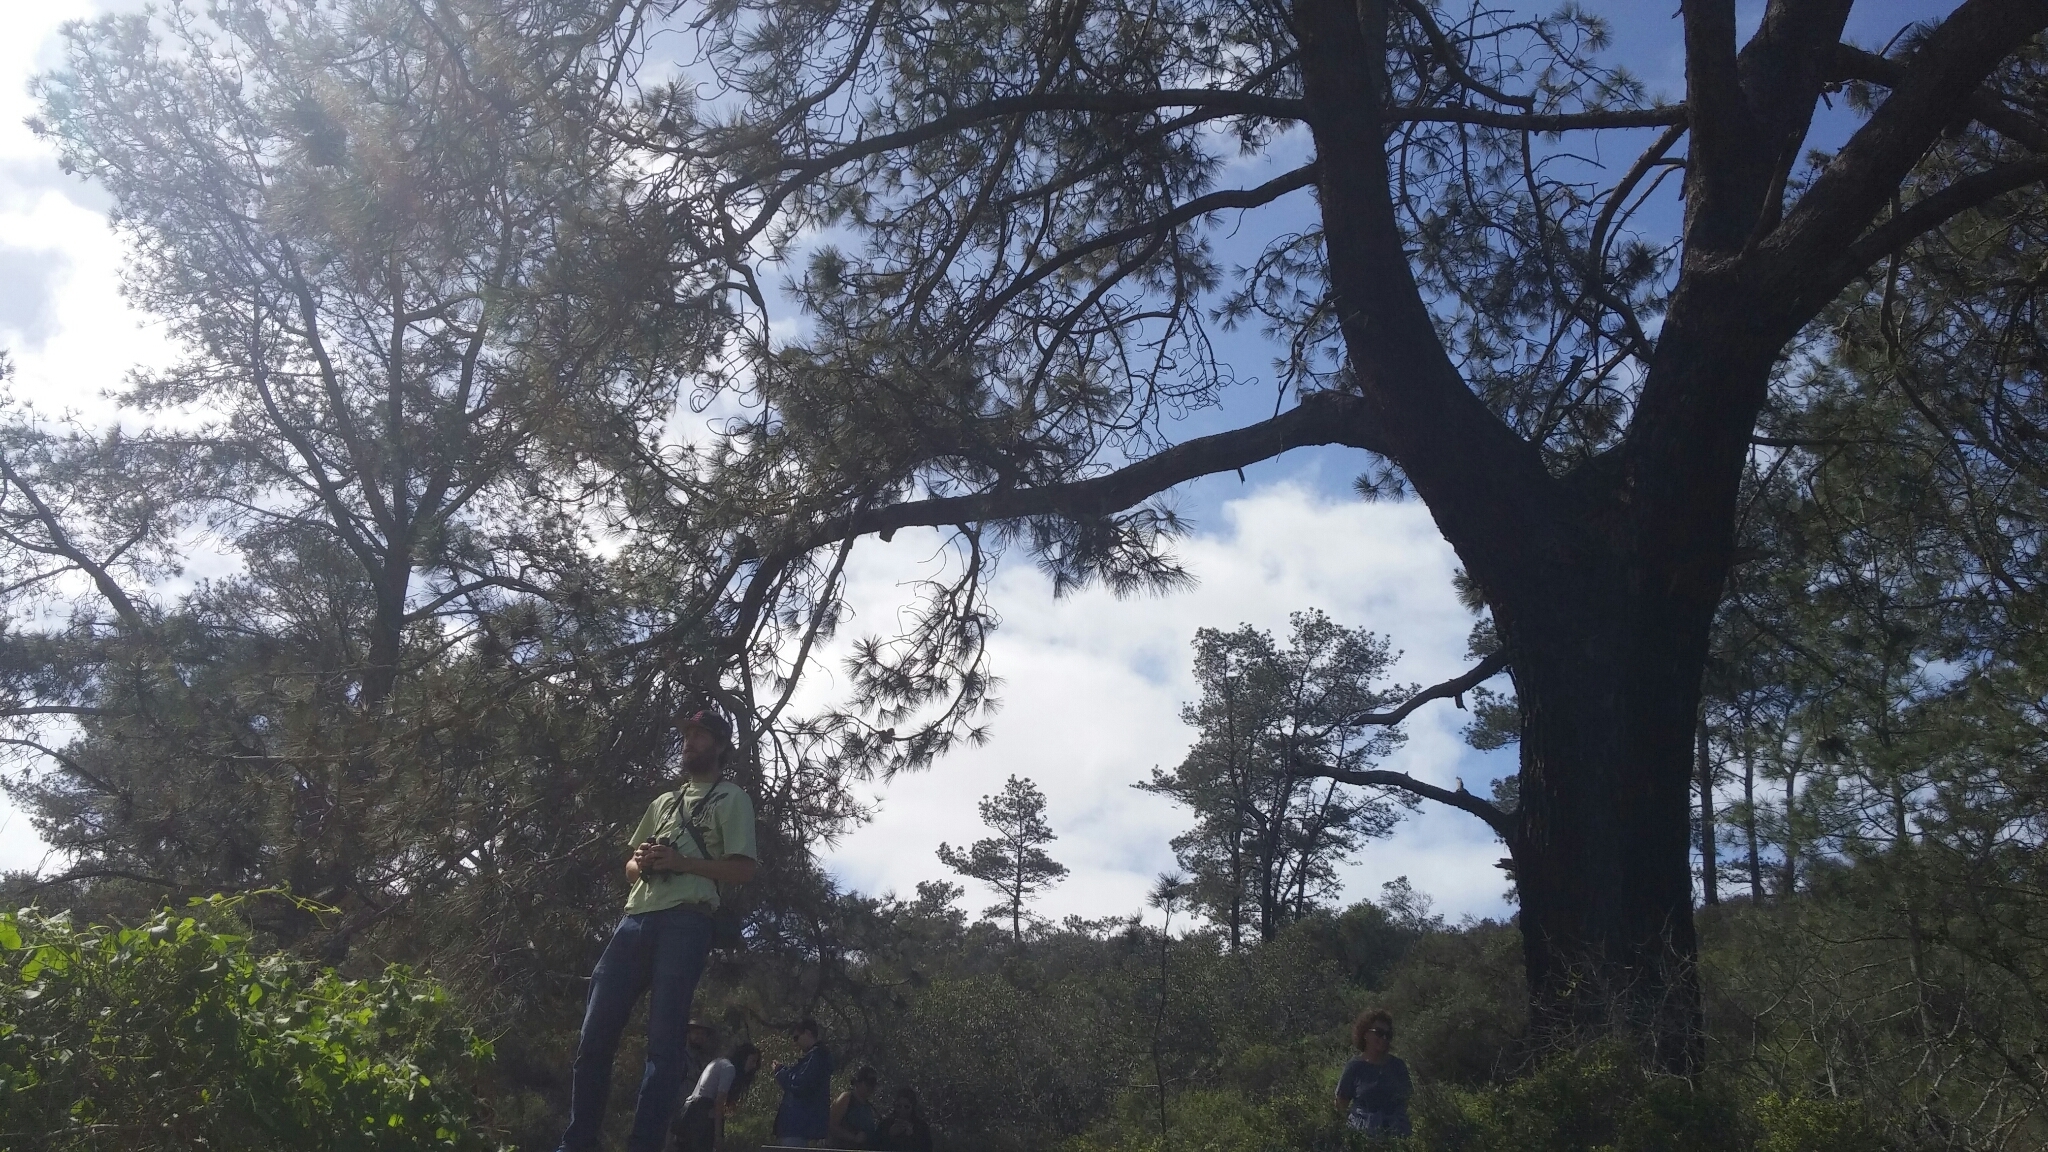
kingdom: Plantae
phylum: Tracheophyta
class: Pinopsida
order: Pinales
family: Pinaceae
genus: Pinus
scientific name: Pinus torreyana
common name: Torrey pine
